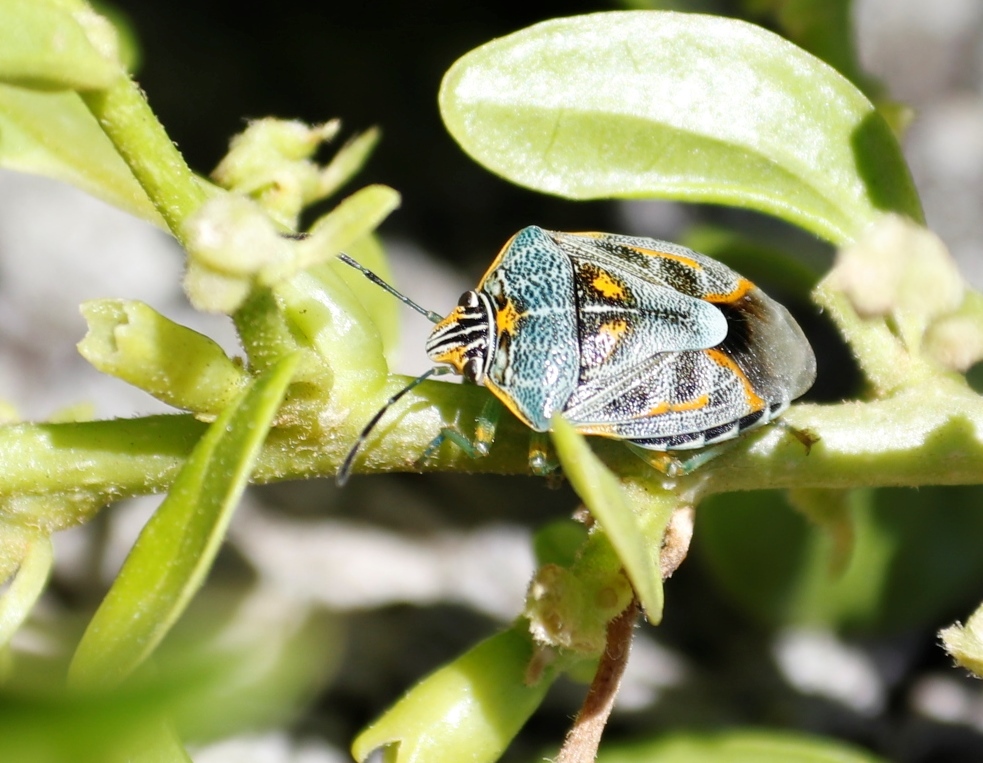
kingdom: Animalia
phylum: Arthropoda
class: Insecta
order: Hemiptera
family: Pentatomidae
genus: Antestiopsis
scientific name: Antestiopsis thunbergii
